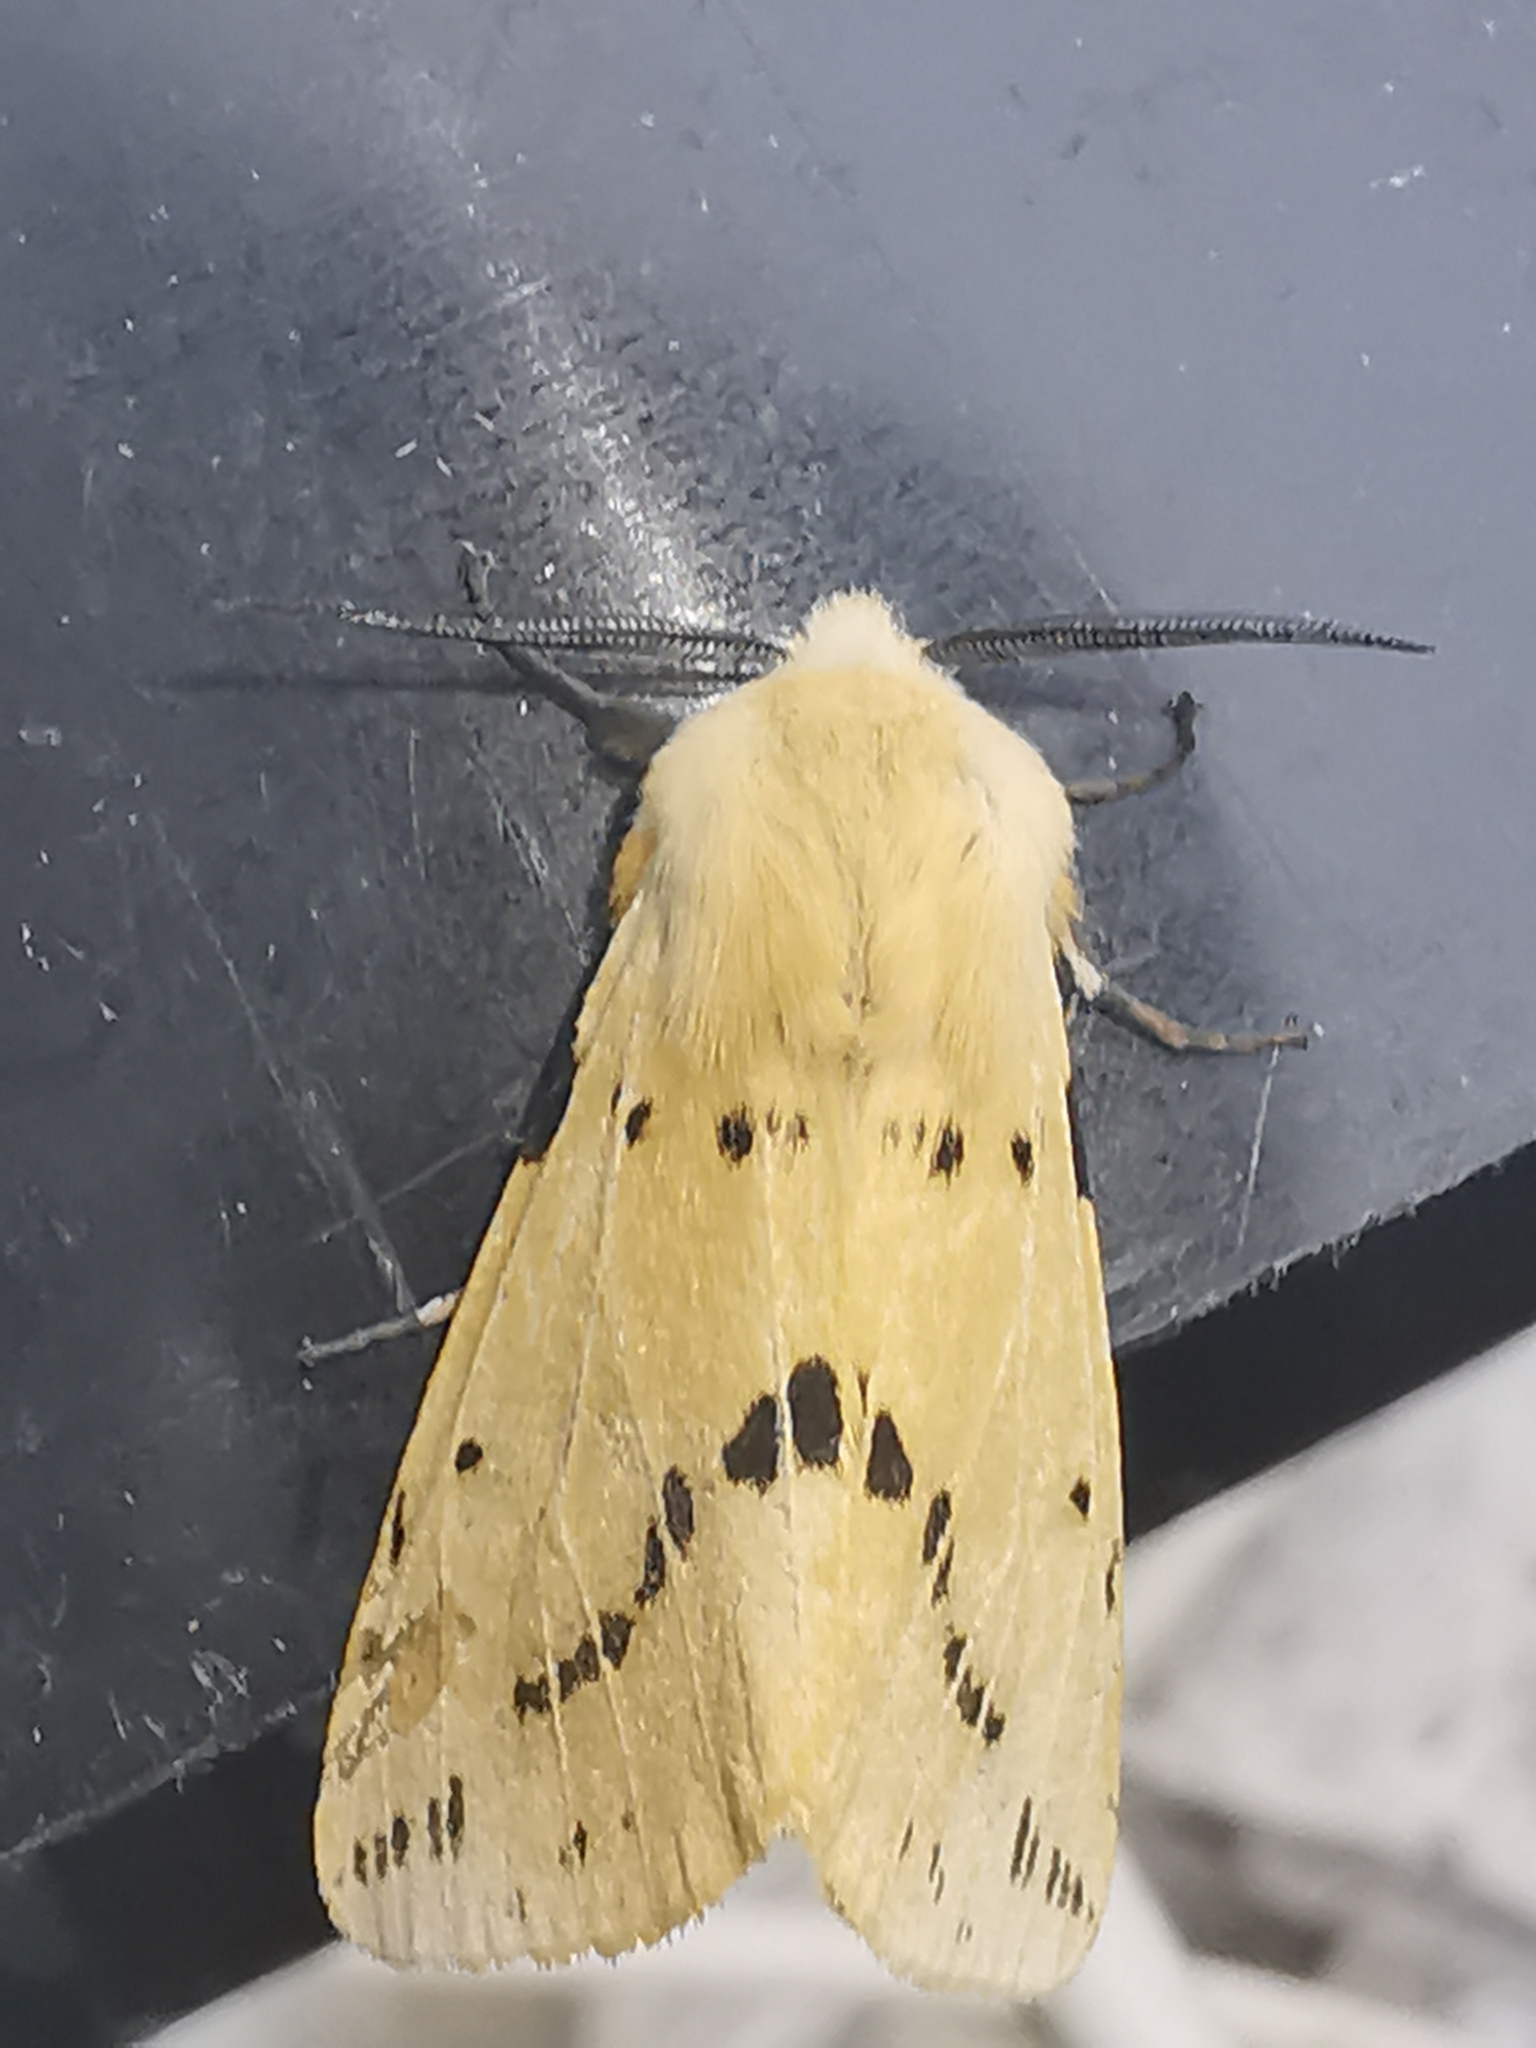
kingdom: Animalia
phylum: Arthropoda
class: Insecta
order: Lepidoptera
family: Erebidae
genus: Spilarctia
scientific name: Spilarctia lutea
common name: Buff ermine
